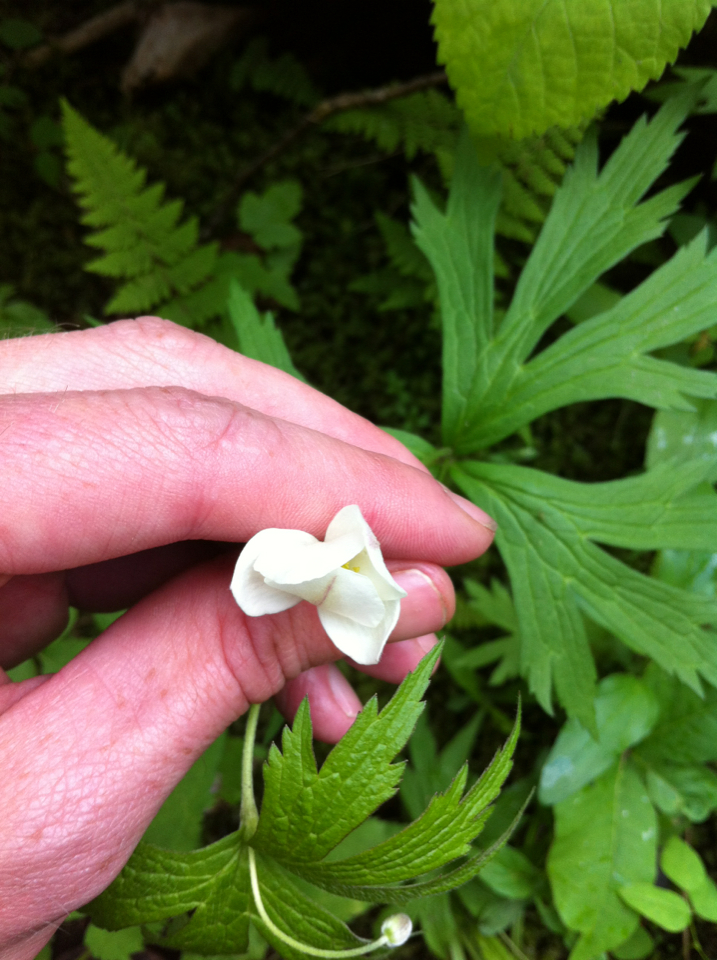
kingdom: Plantae
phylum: Tracheophyta
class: Magnoliopsida
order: Ranunculales
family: Ranunculaceae
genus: Anemonastrum
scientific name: Anemonastrum canadense
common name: Canada anemone
